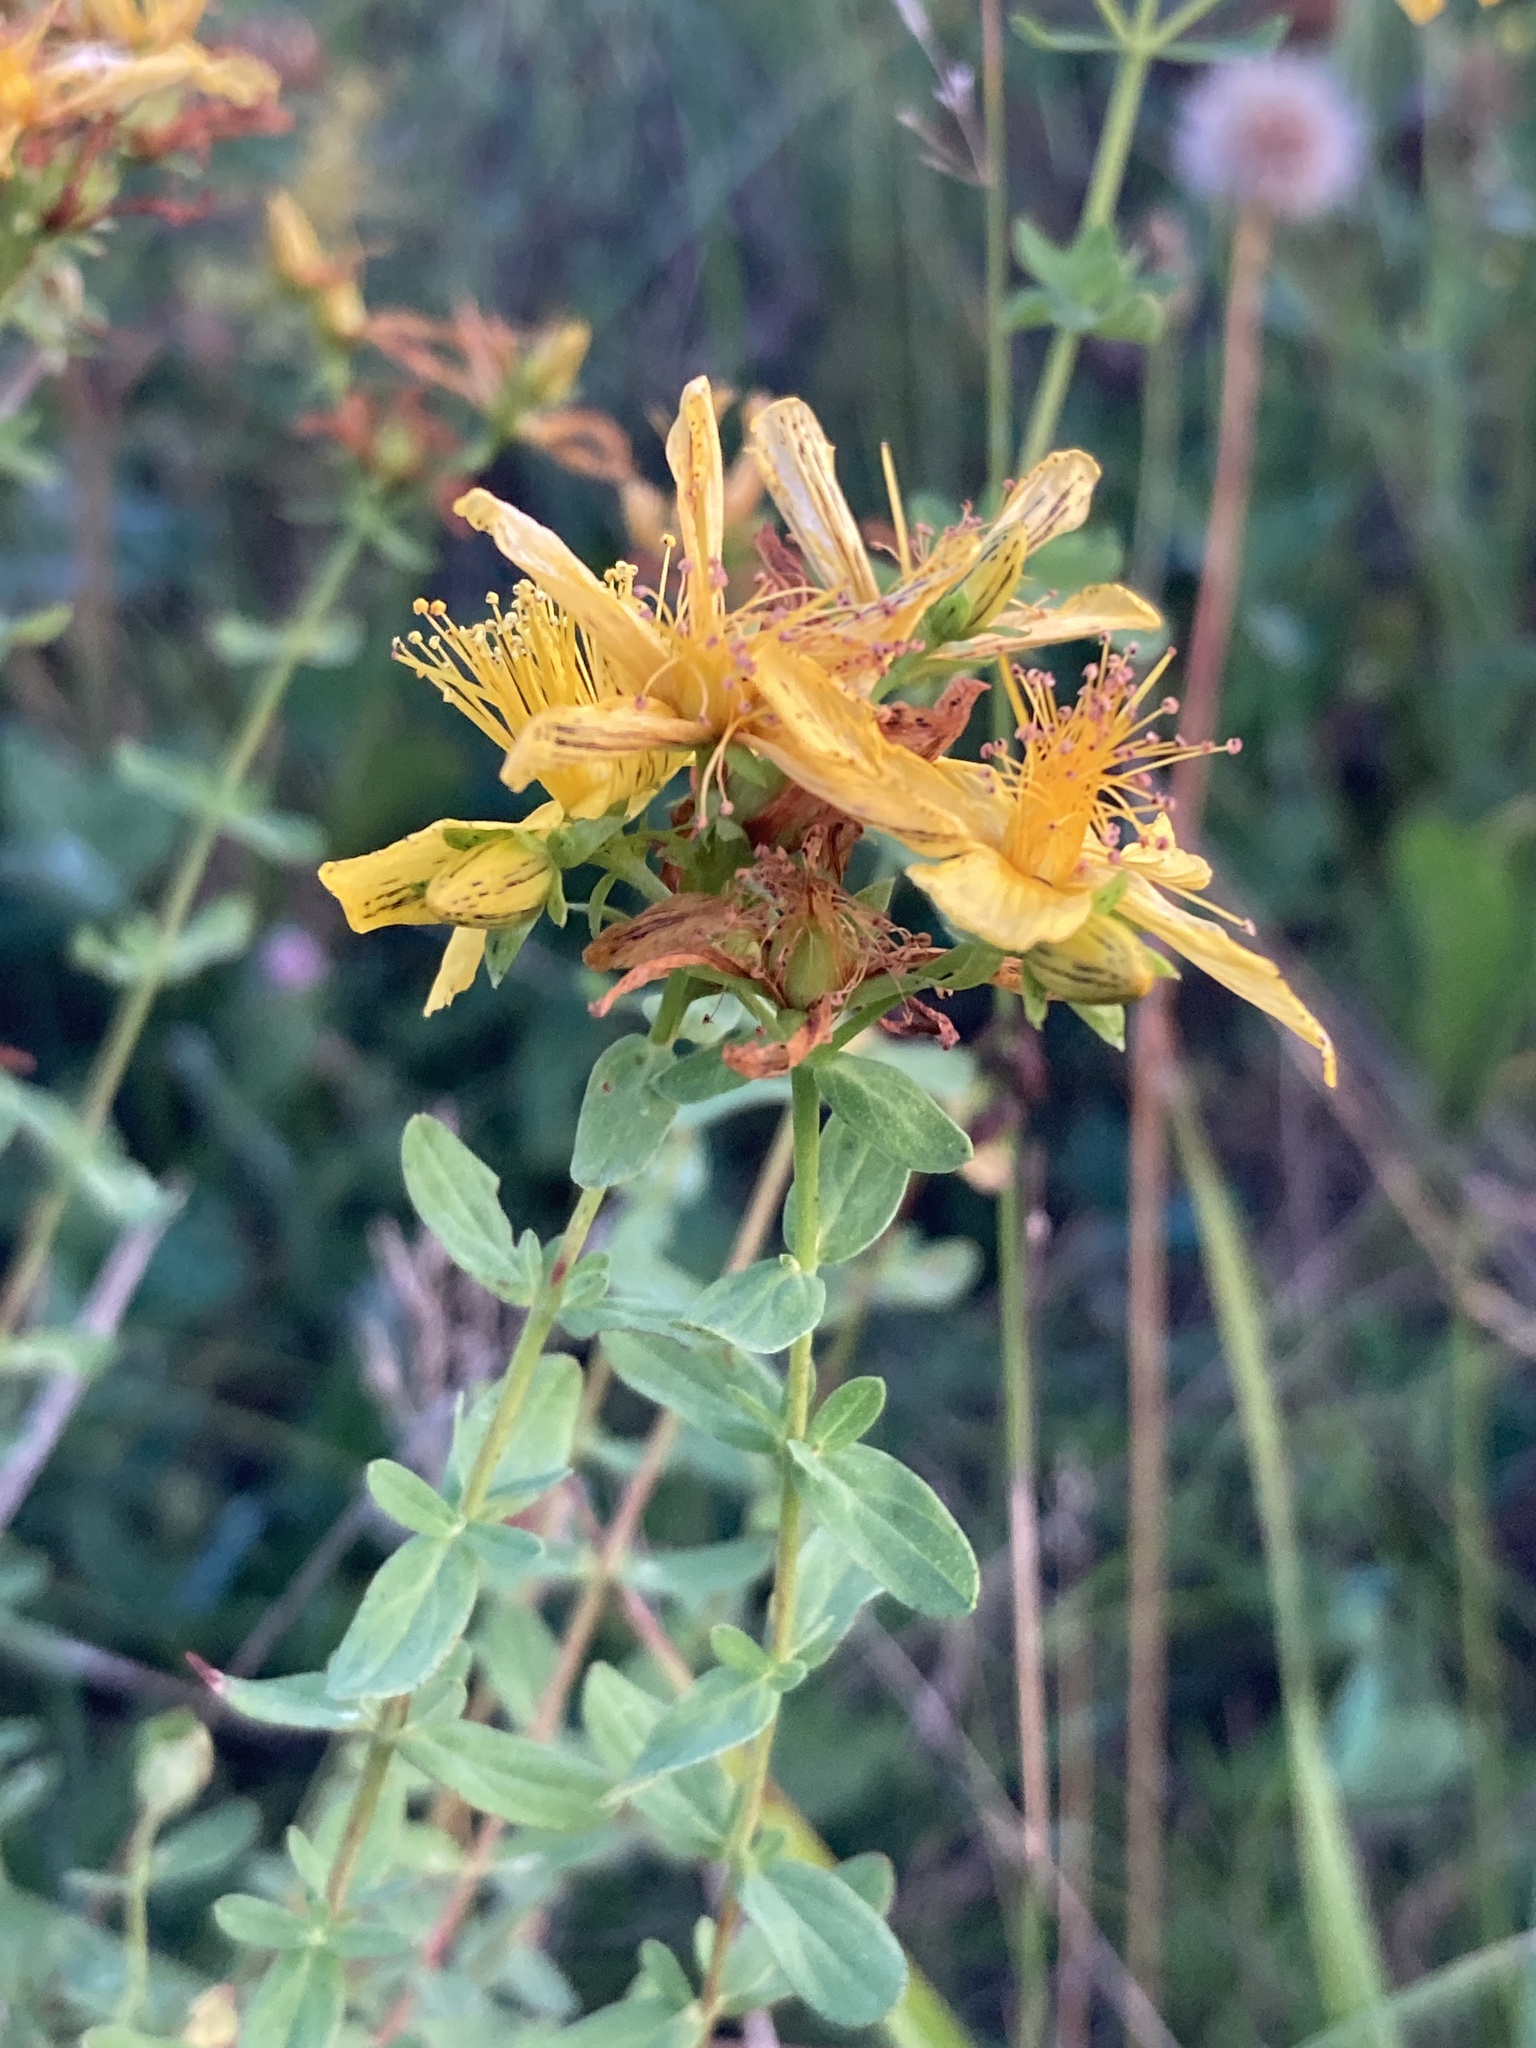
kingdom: Plantae
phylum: Tracheophyta
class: Magnoliopsida
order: Malpighiales
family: Hypericaceae
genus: Hypericum
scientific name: Hypericum perforatum
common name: Common st. johnswort
